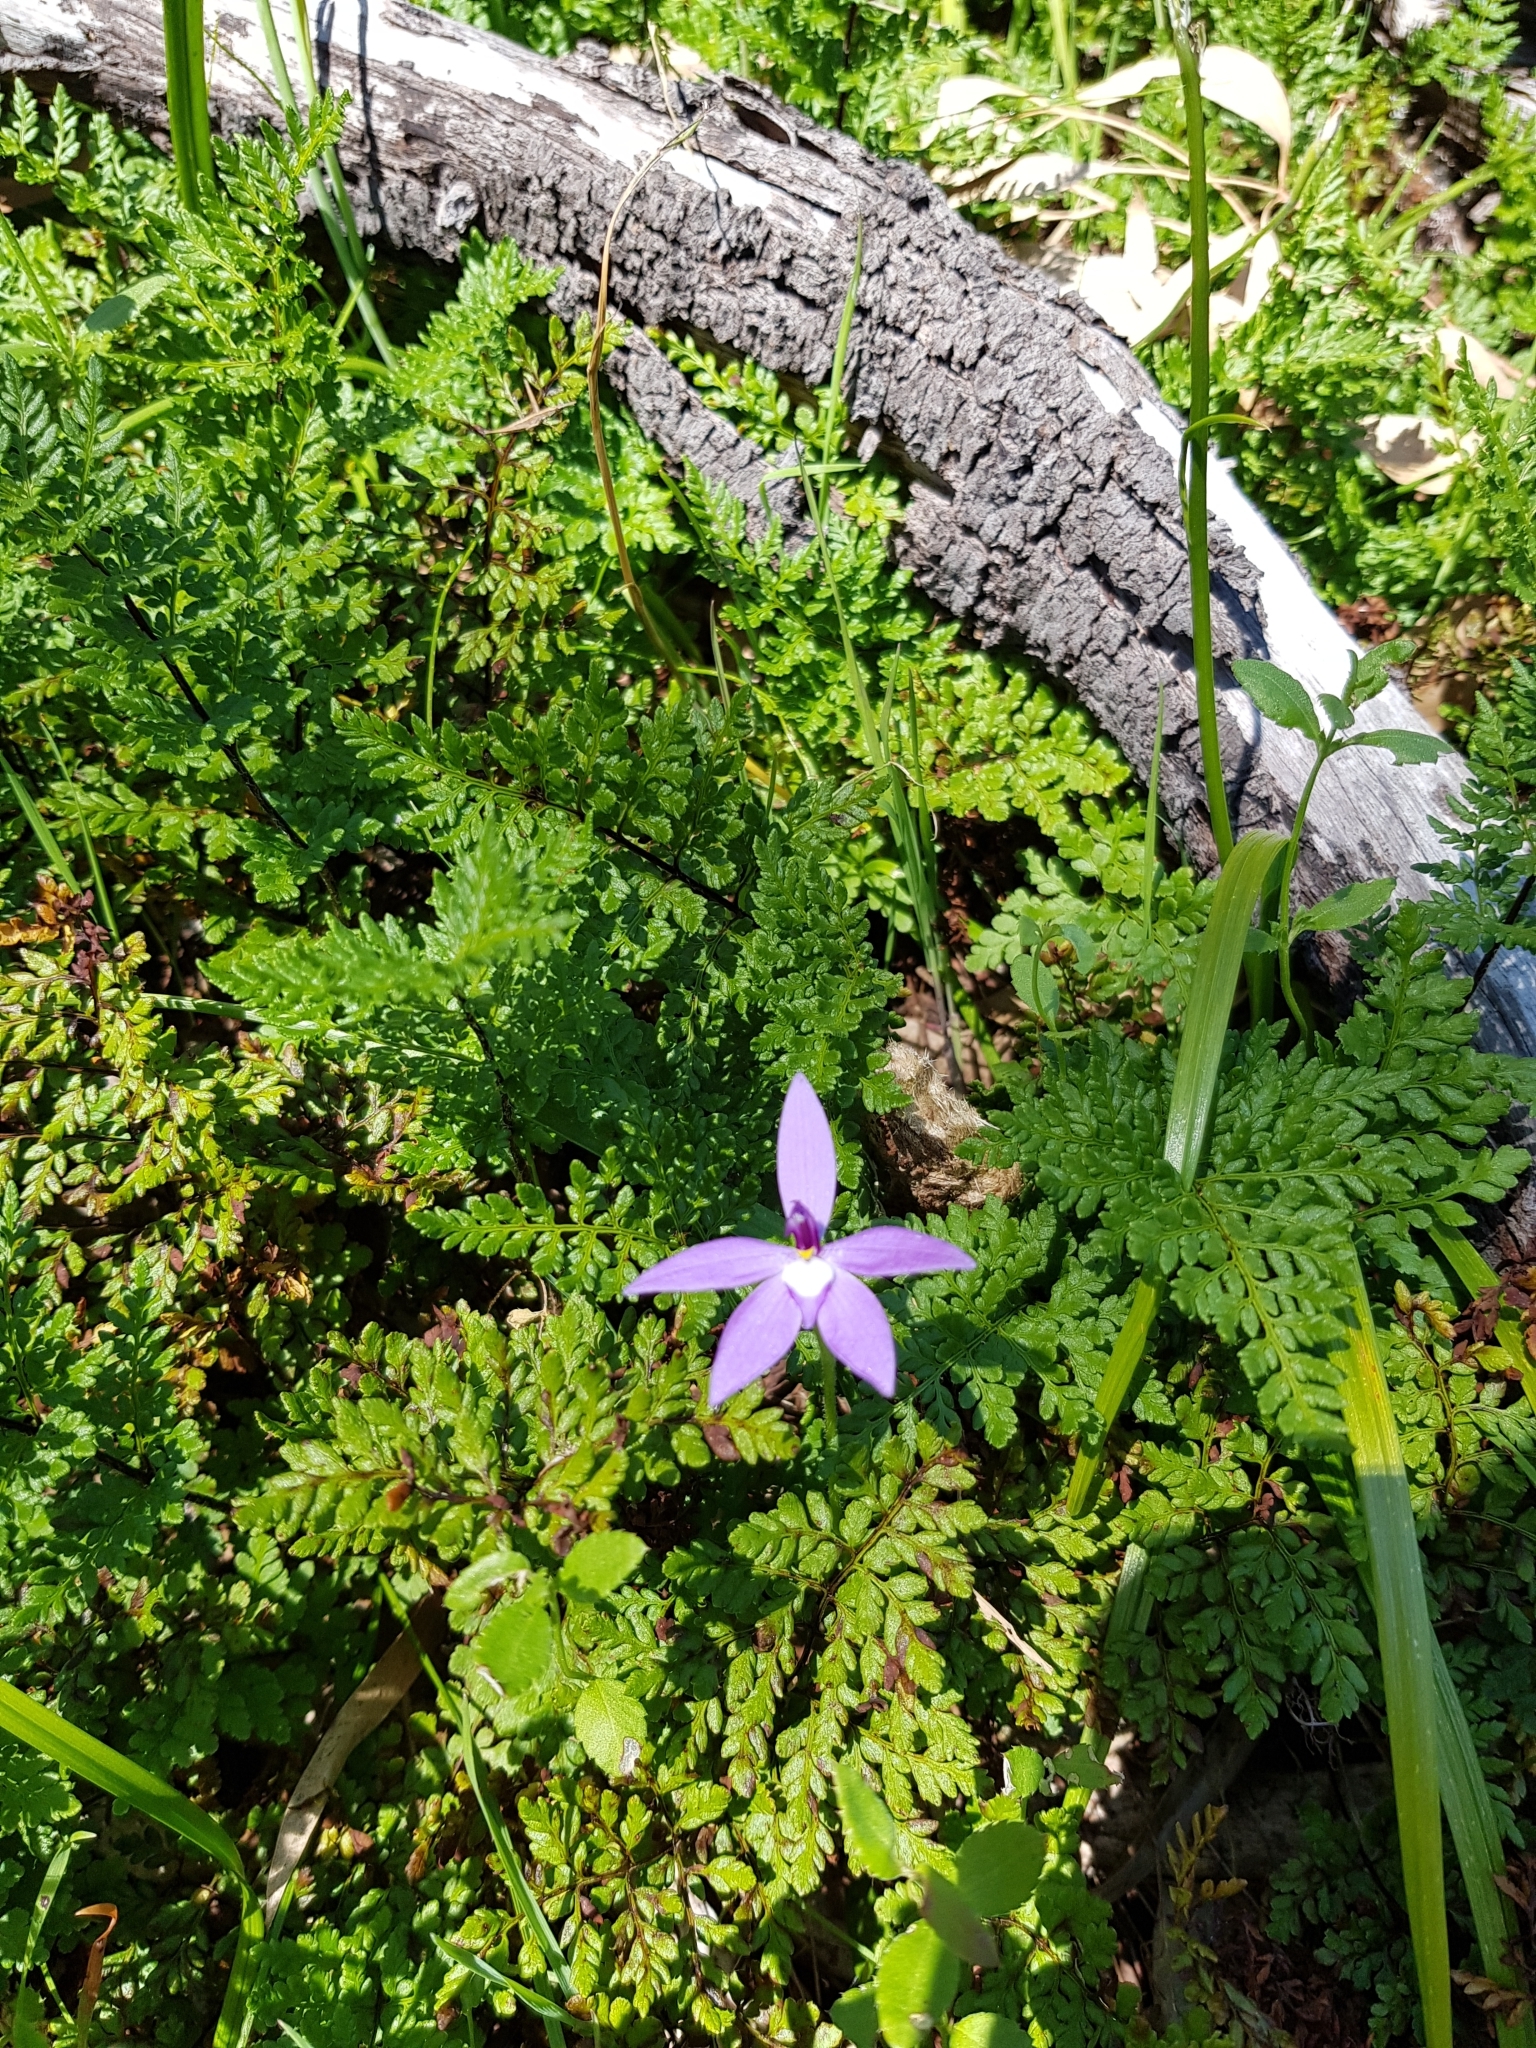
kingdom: Plantae
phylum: Tracheophyta
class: Liliopsida
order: Asparagales
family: Orchidaceae
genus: Caladenia
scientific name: Caladenia major
